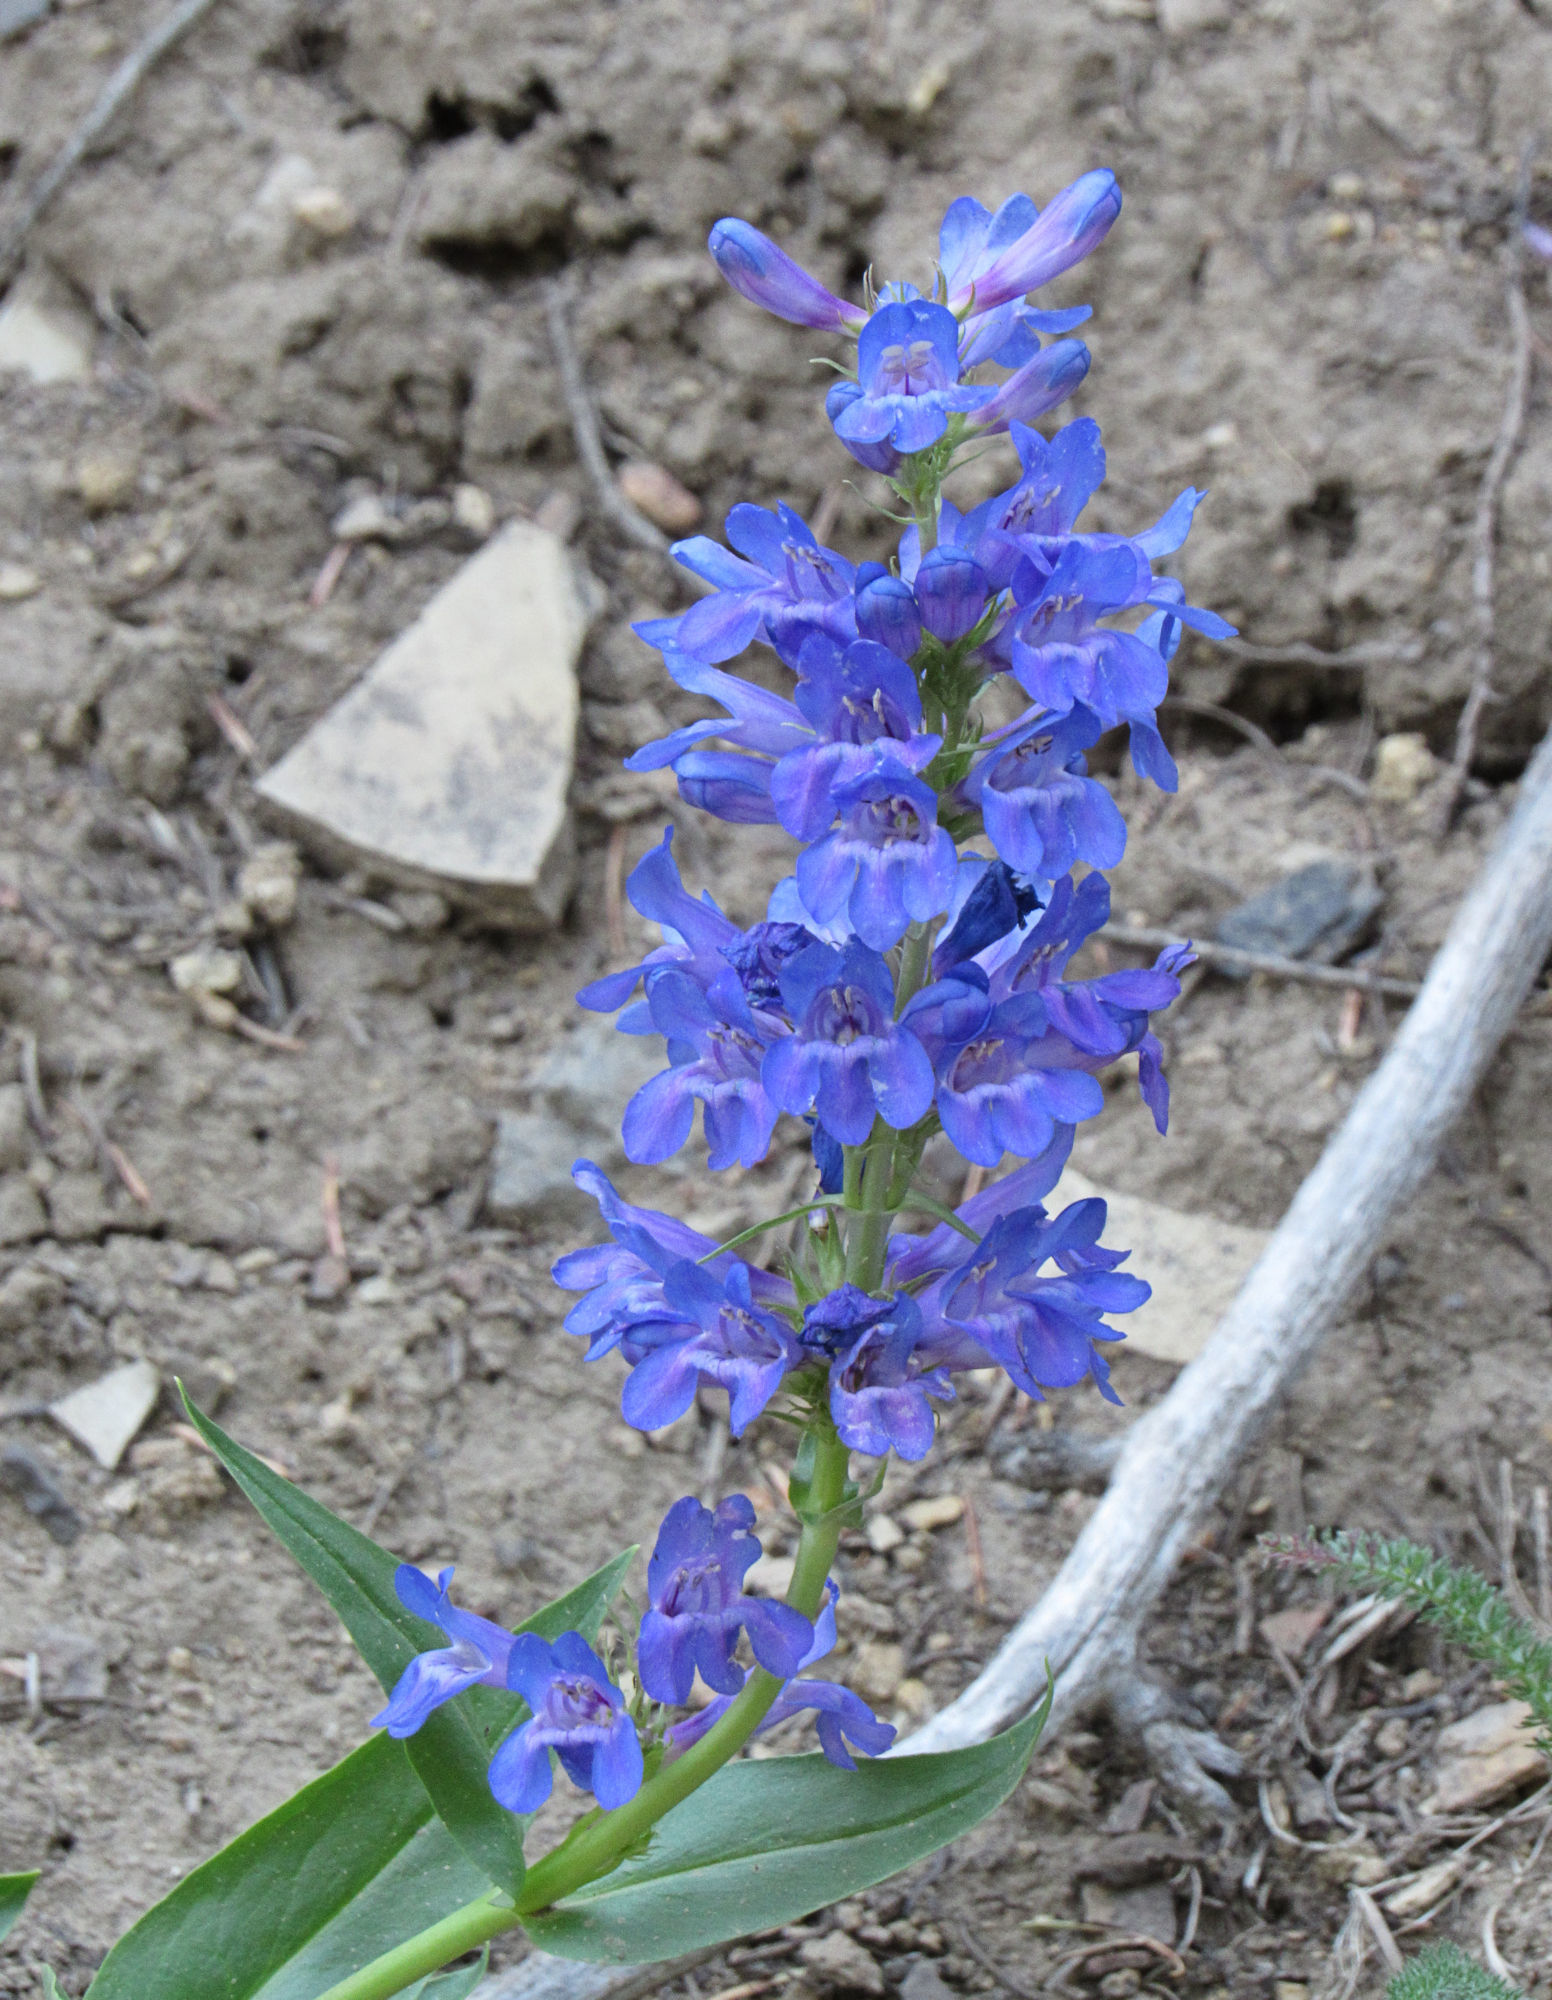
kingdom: Plantae
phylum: Tracheophyta
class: Magnoliopsida
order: Lamiales
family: Plantaginaceae
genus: Penstemon
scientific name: Penstemon cyaneus
